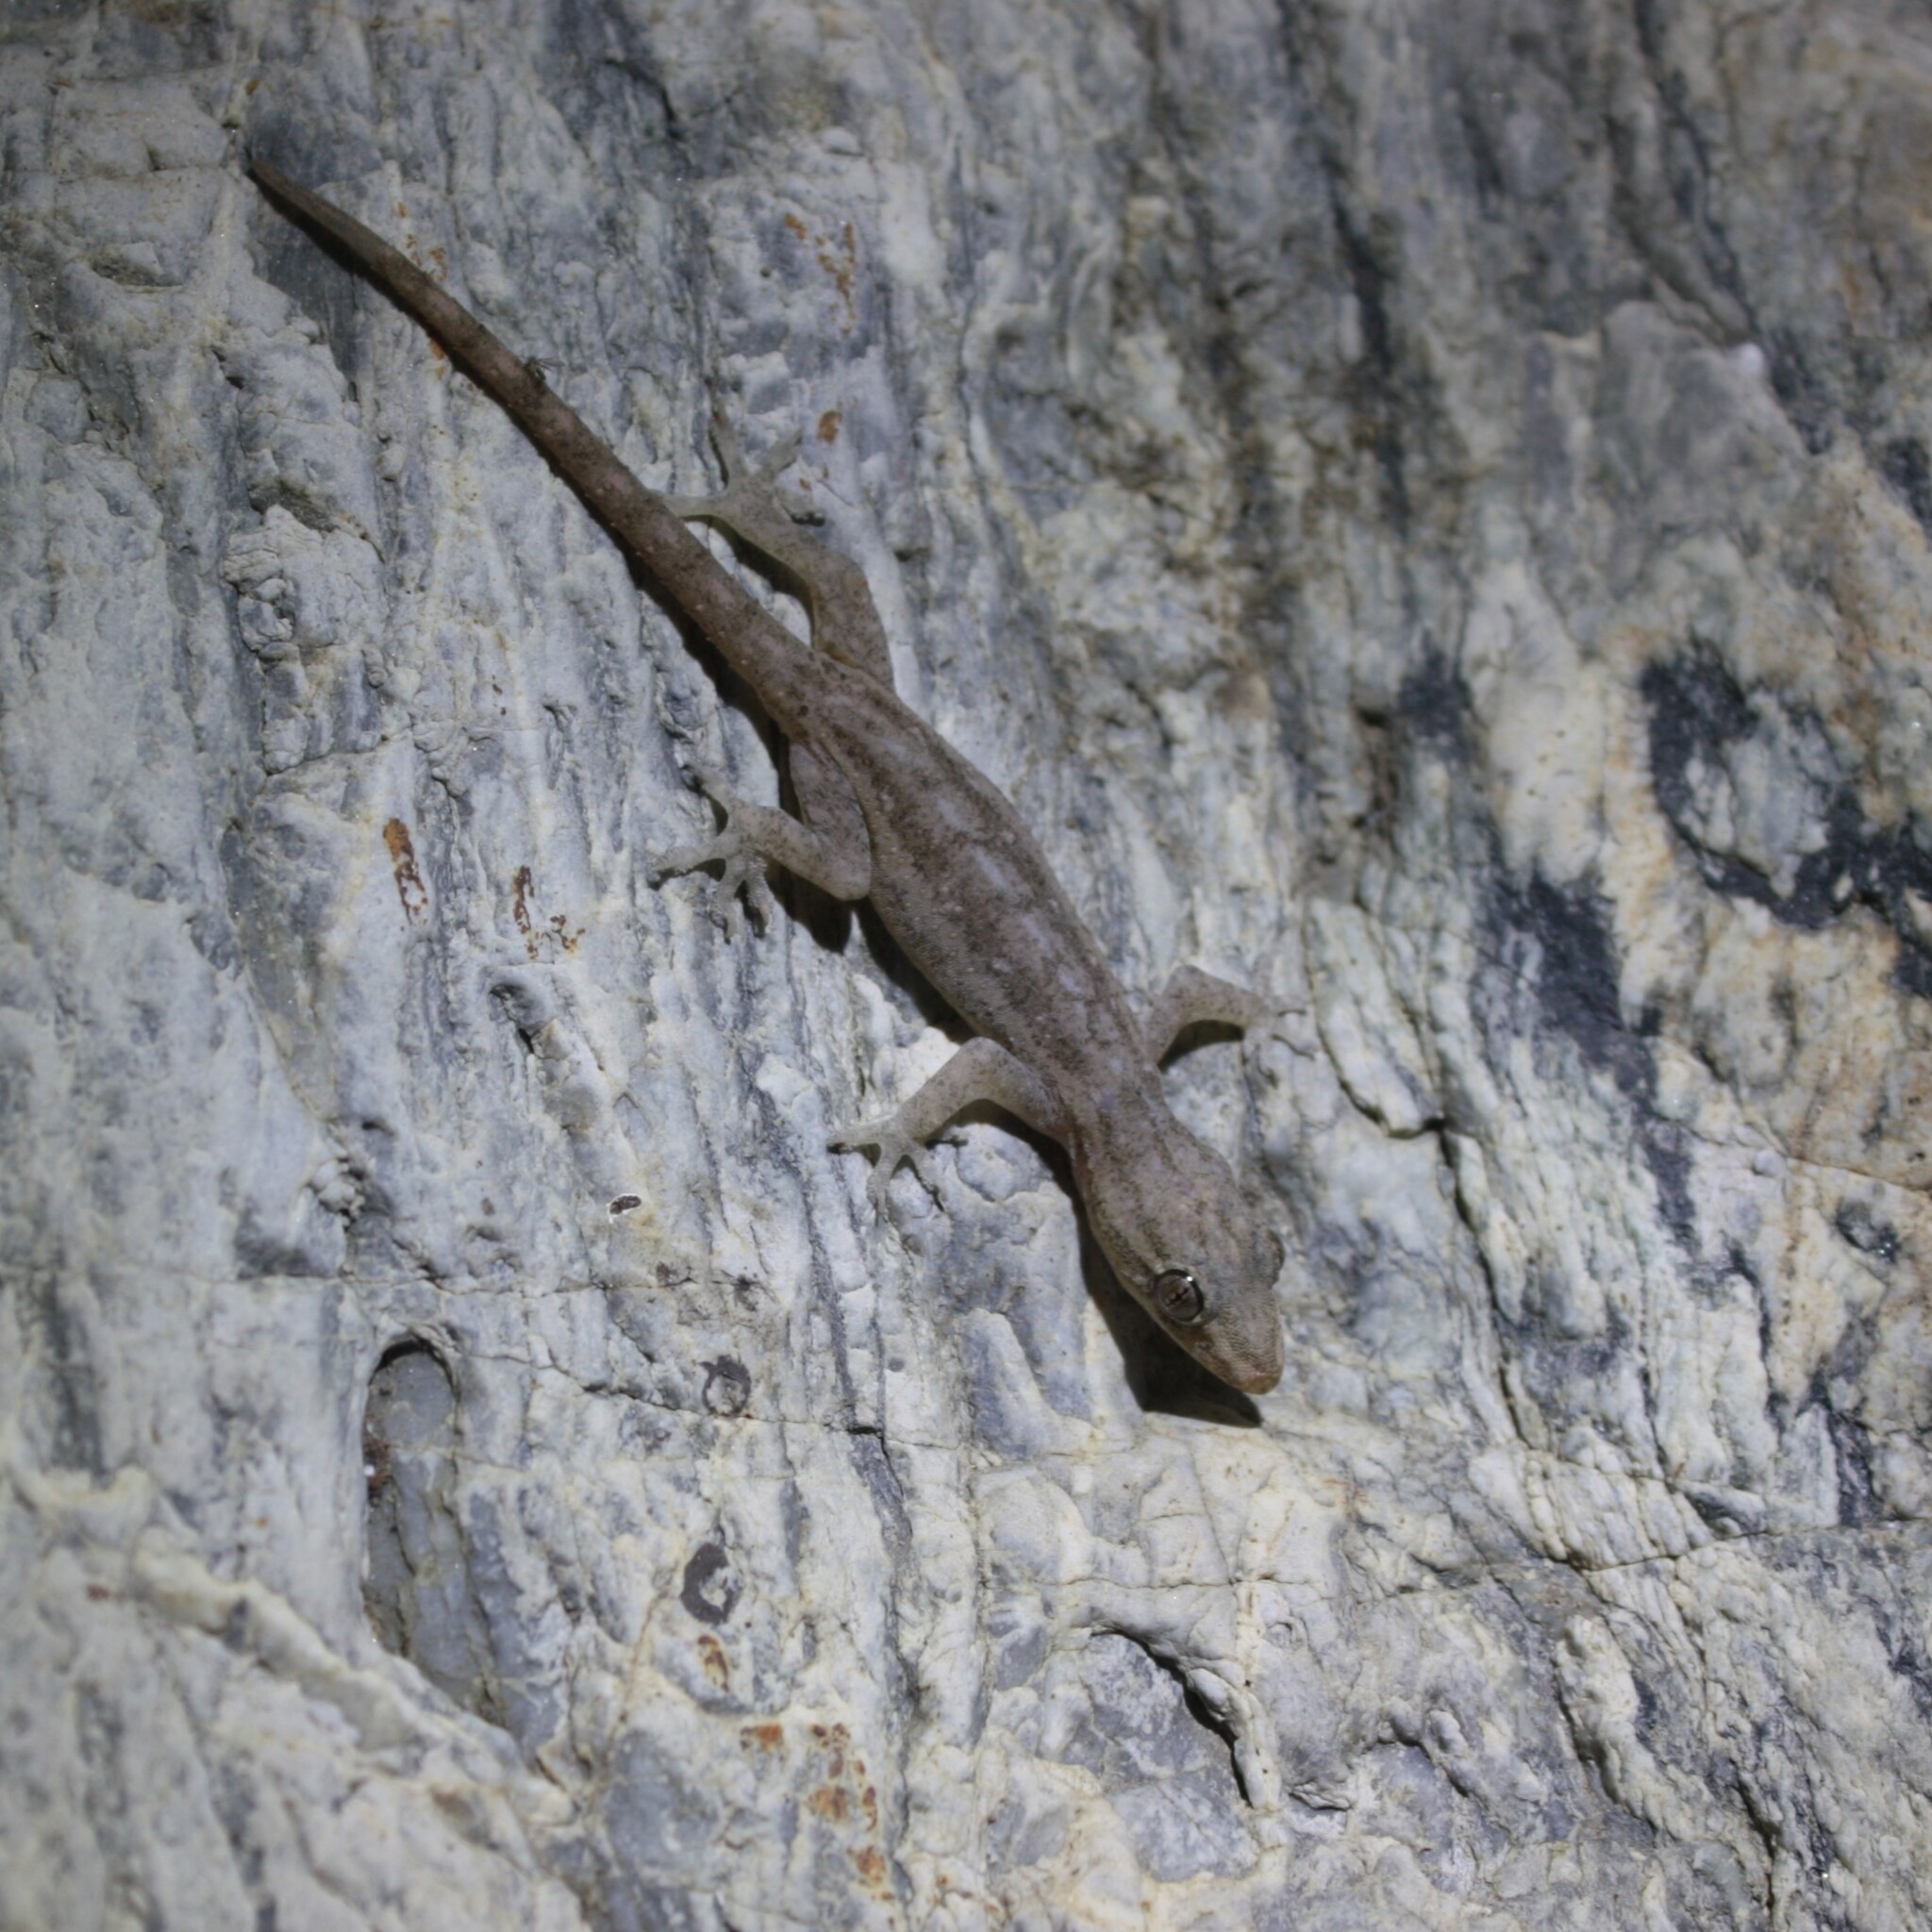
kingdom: Animalia
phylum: Chordata
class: Squamata
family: Gekkonidae
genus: Hemidactylus
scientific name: Hemidactylus frenatus
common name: Common house gecko
